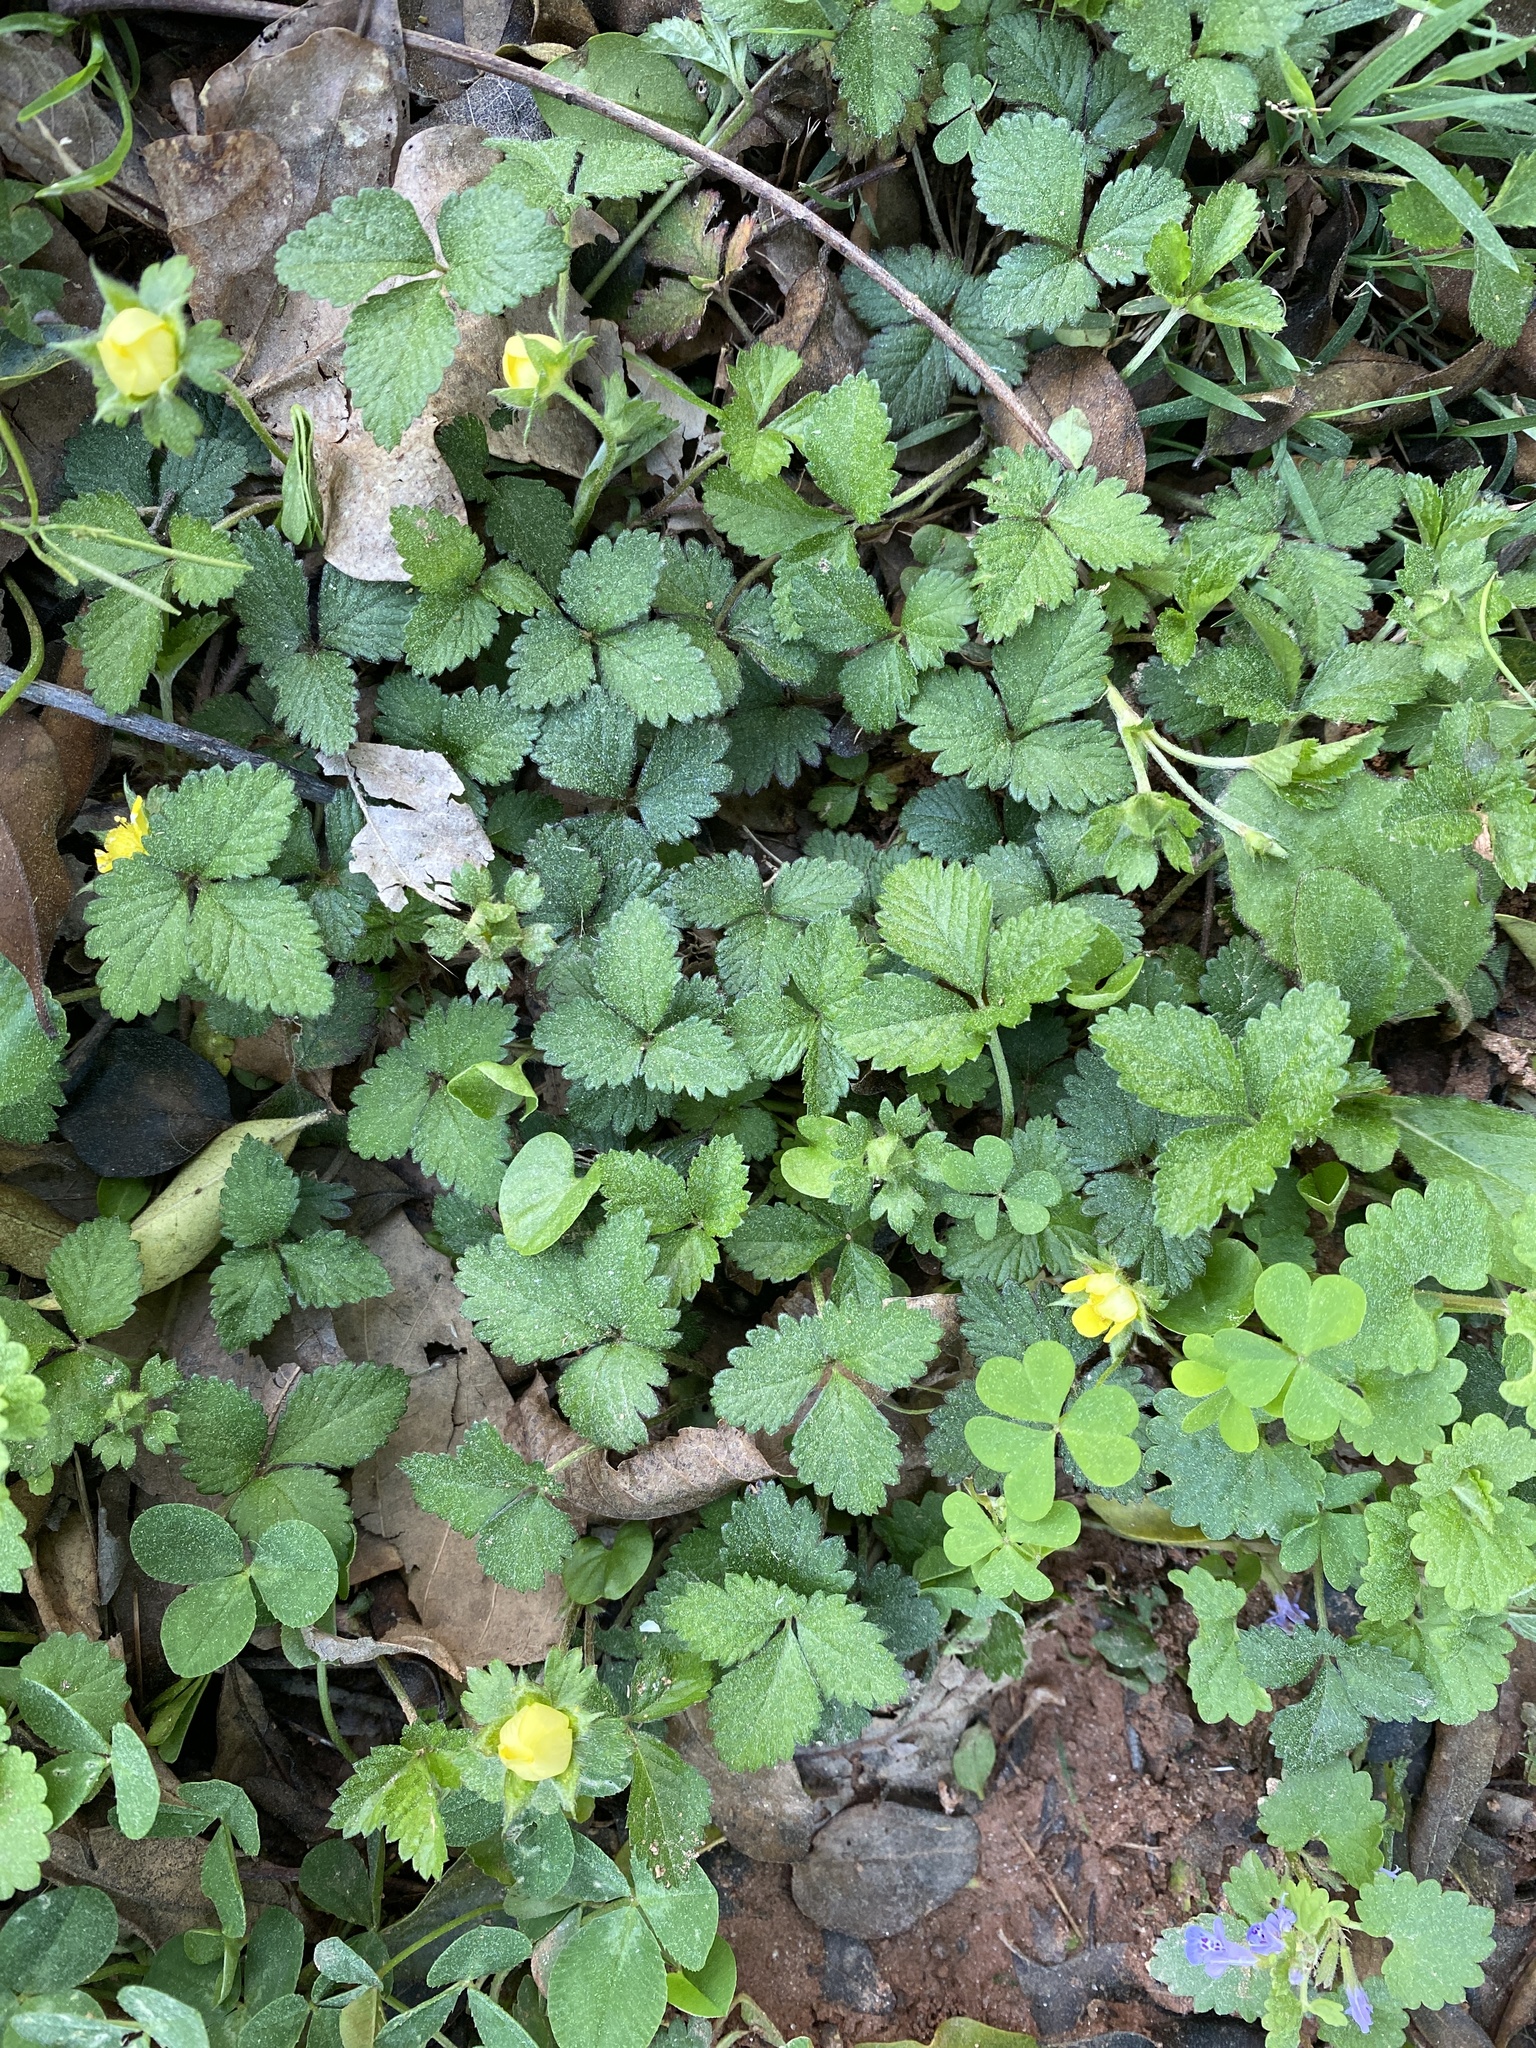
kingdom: Plantae
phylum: Tracheophyta
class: Magnoliopsida
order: Rosales
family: Rosaceae
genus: Potentilla
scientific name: Potentilla indica
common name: Yellow-flowered strawberry
